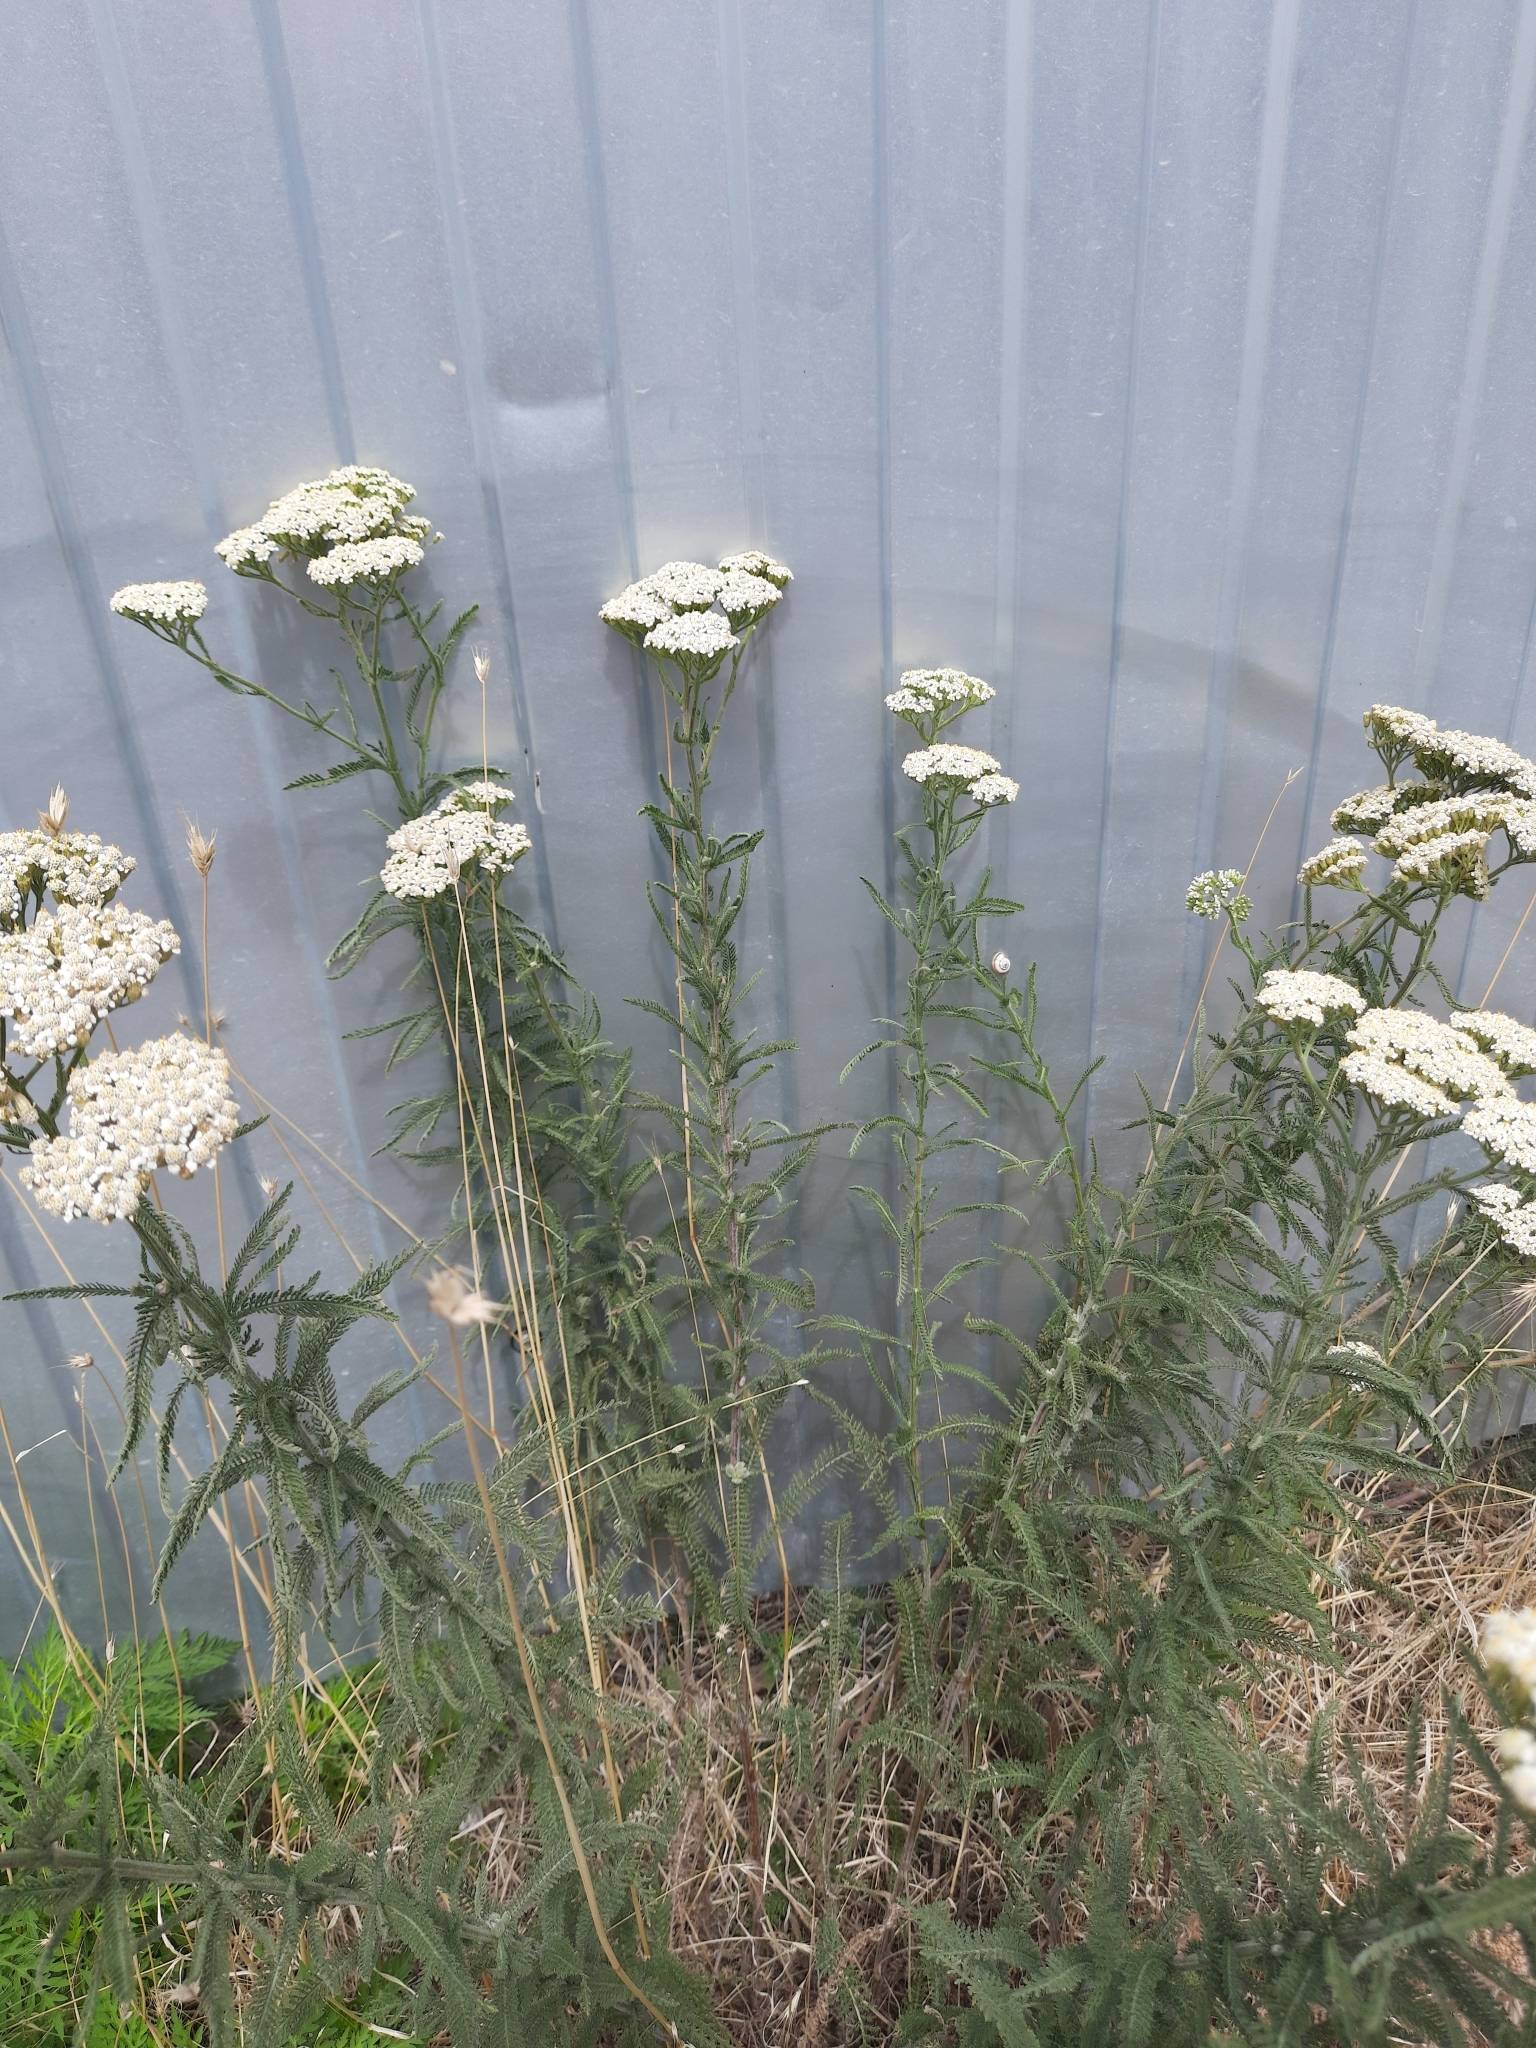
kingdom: Plantae
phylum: Tracheophyta
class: Magnoliopsida
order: Asterales
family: Asteraceae
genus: Achillea
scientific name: Achillea setacea
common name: Bristly yarrow
